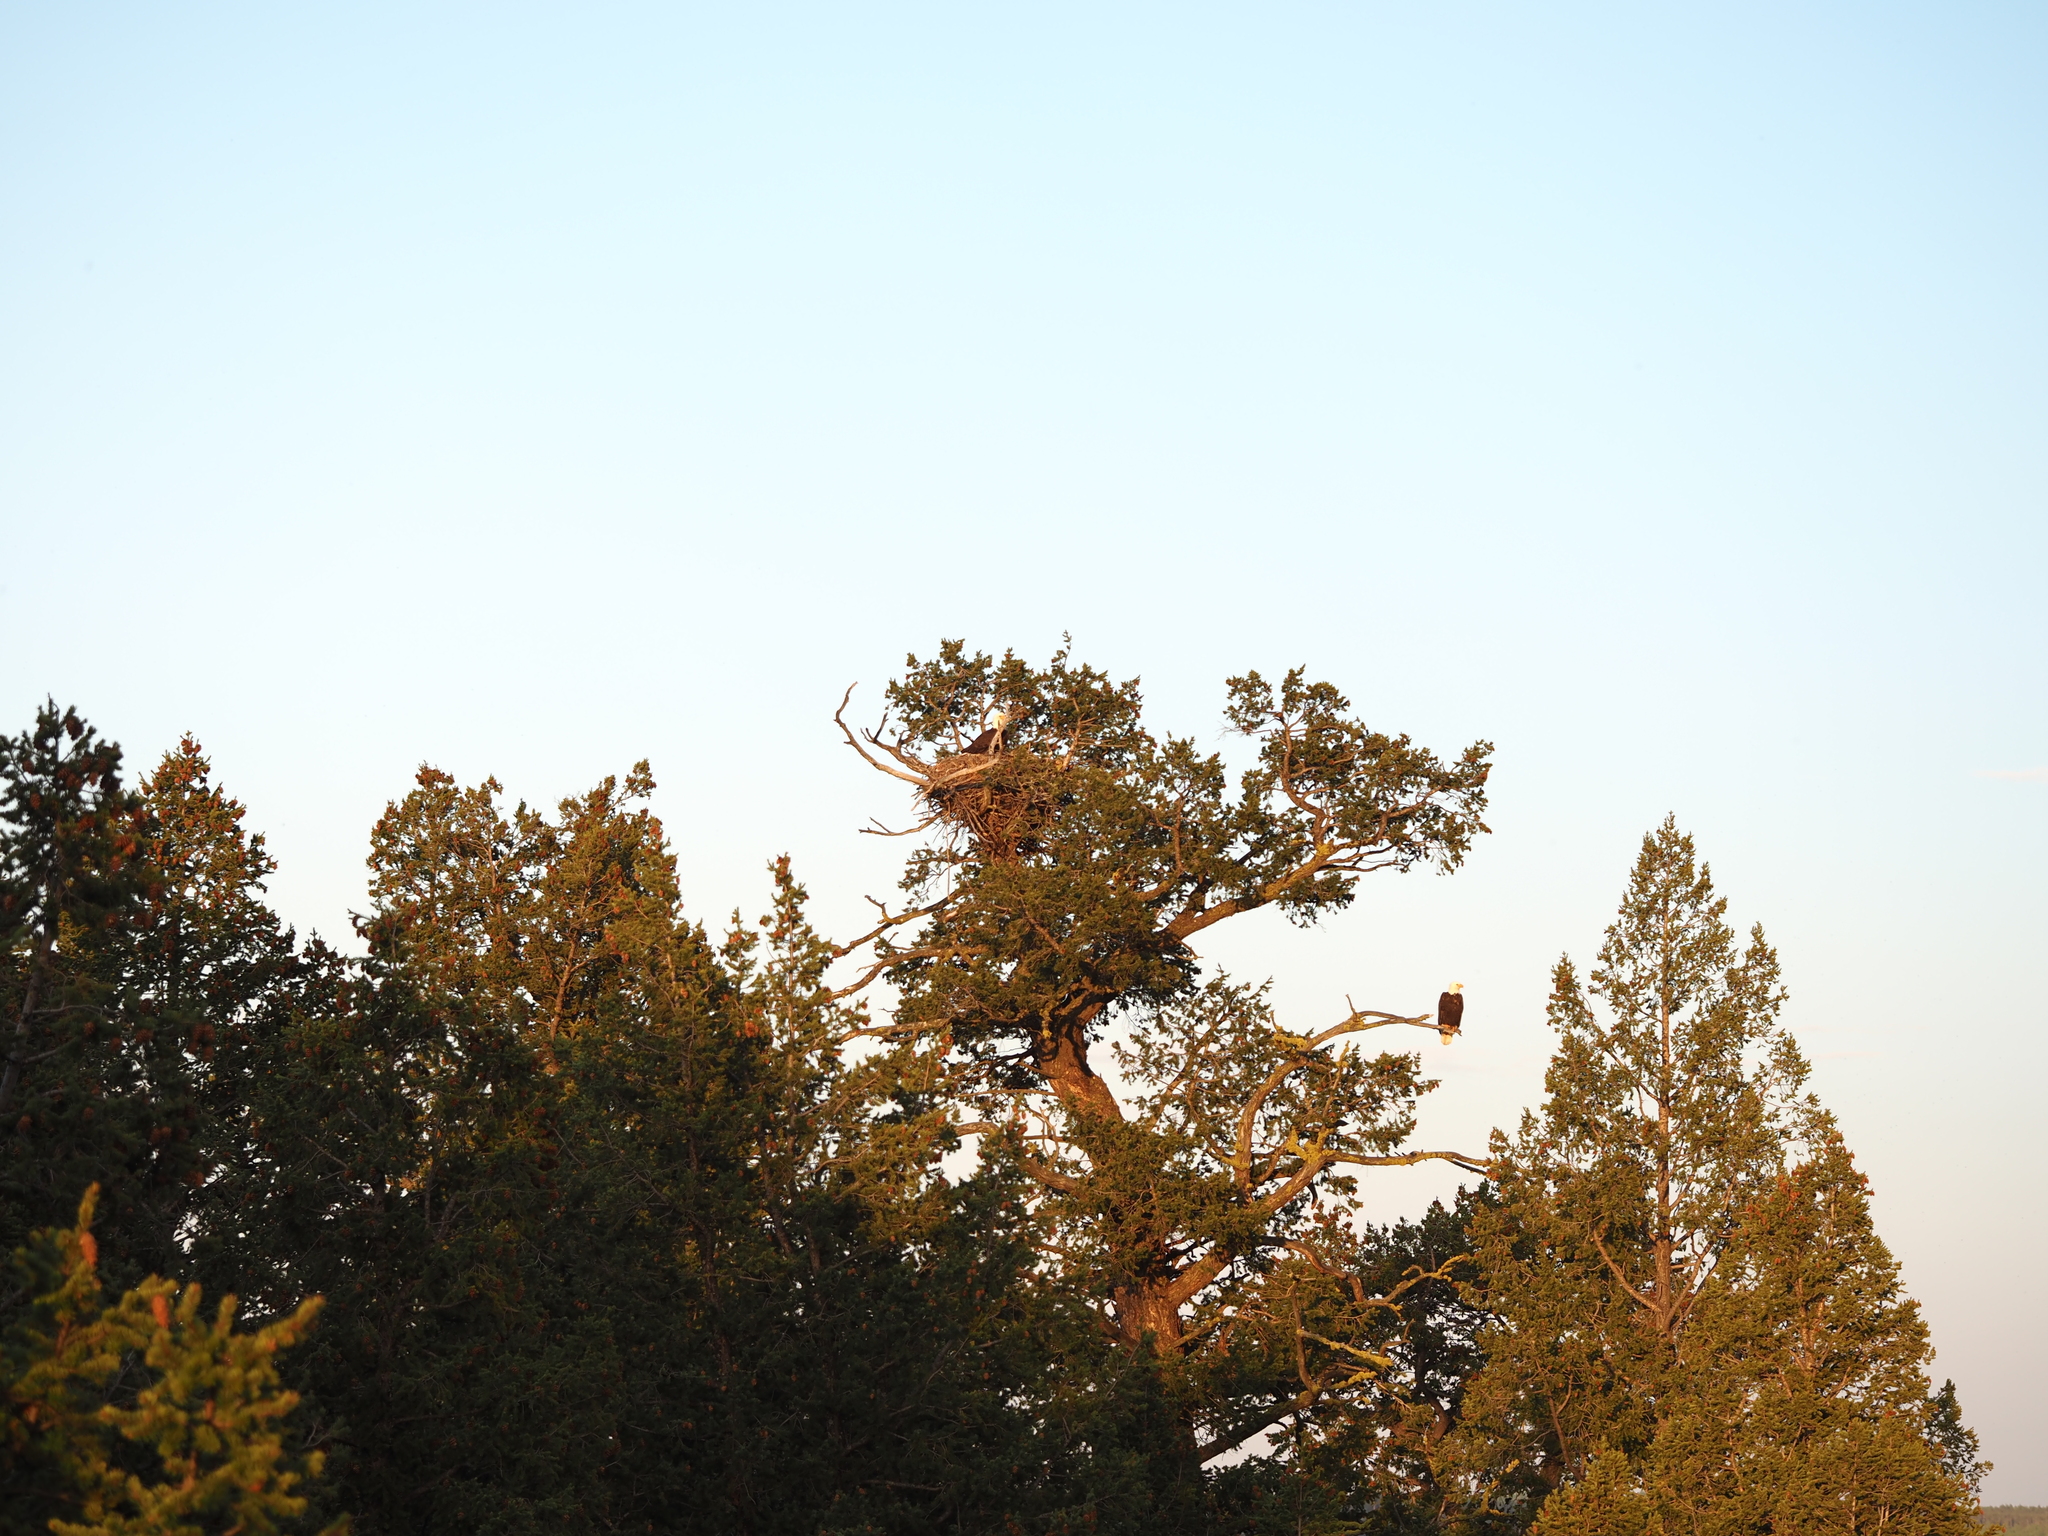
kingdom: Animalia
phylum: Chordata
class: Aves
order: Accipitriformes
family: Accipitridae
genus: Haliaeetus
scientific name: Haliaeetus leucocephalus
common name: Bald eagle
